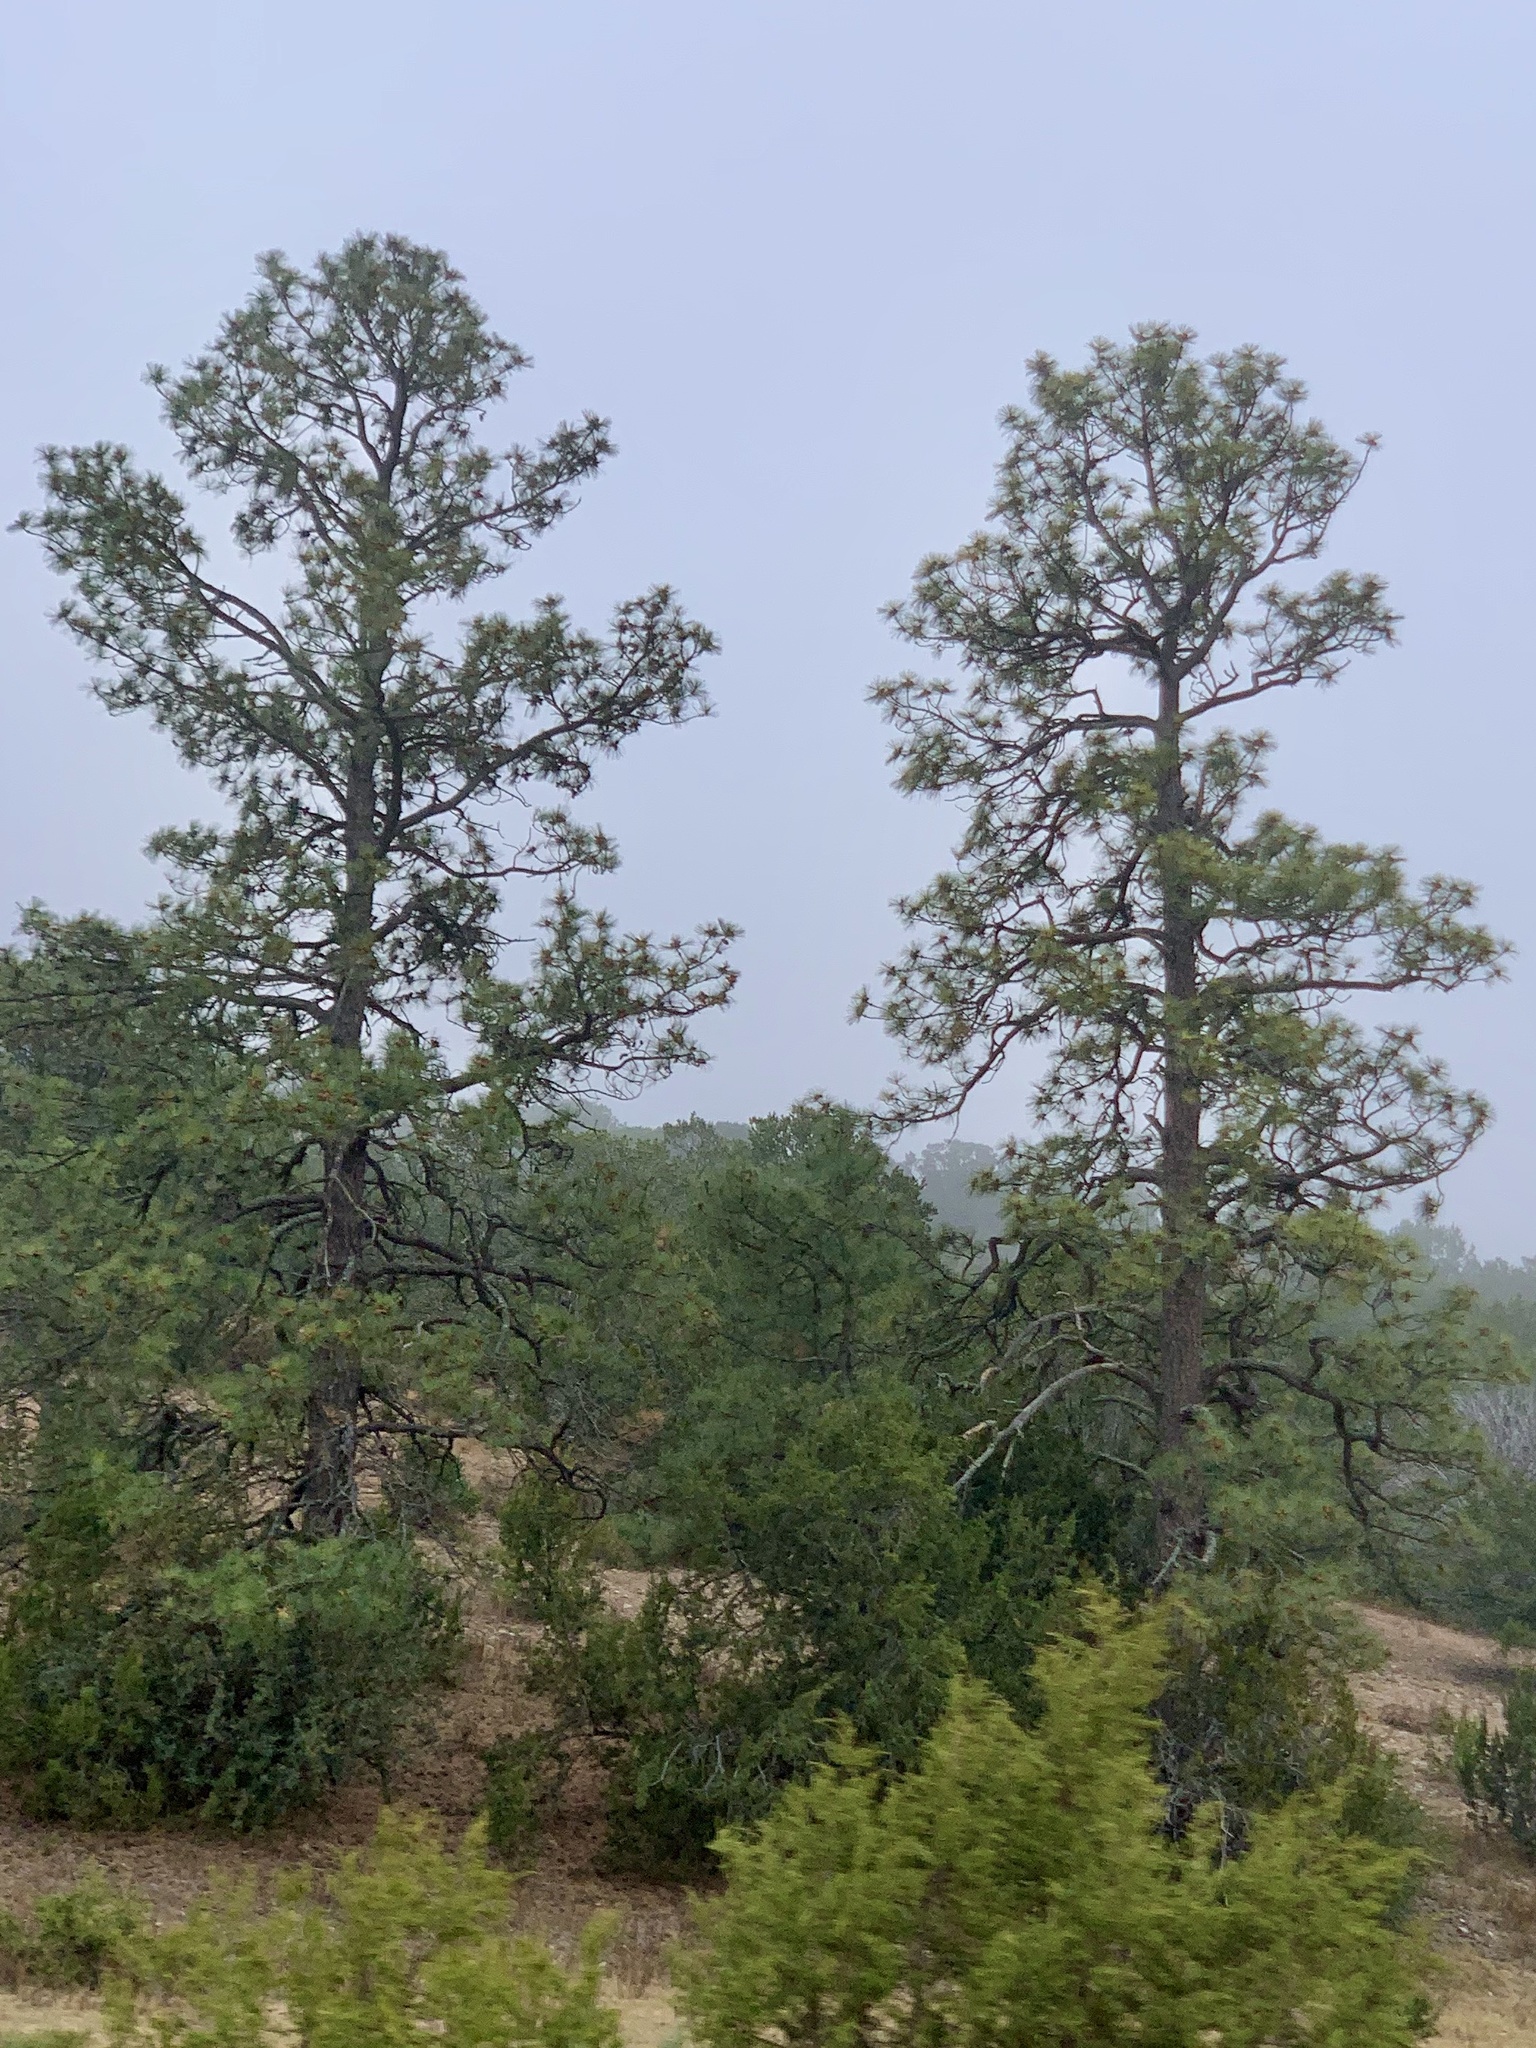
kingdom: Plantae
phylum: Tracheophyta
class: Pinopsida
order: Pinales
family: Pinaceae
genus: Pinus
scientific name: Pinus ponderosa
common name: Western yellow-pine
